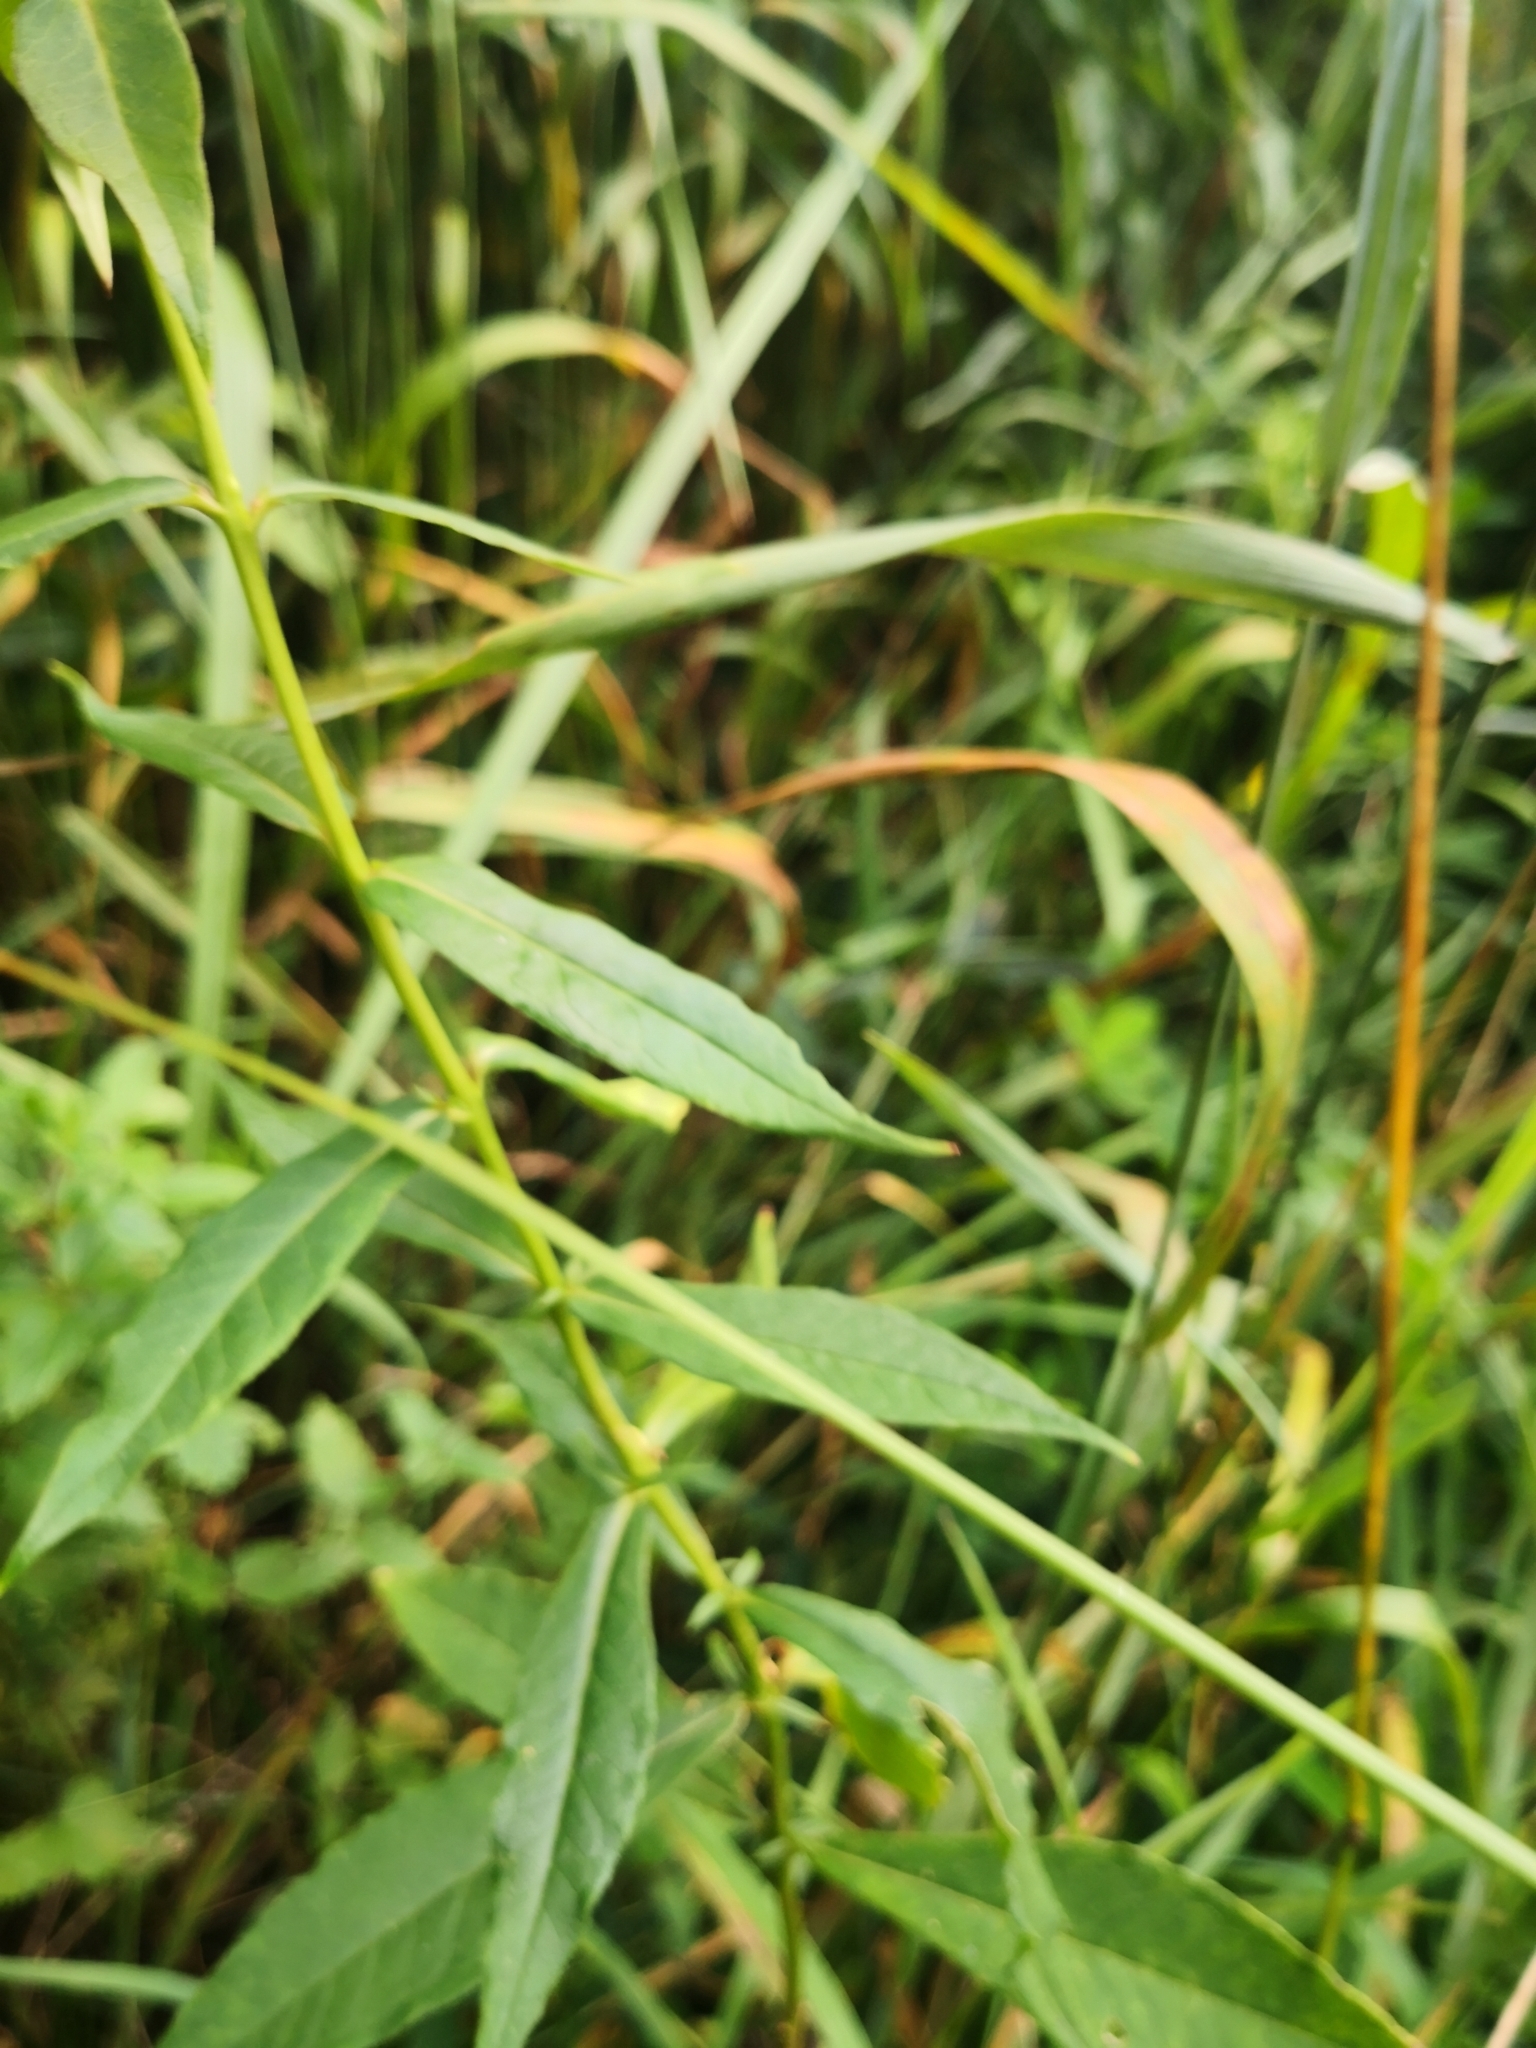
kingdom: Plantae
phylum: Tracheophyta
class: Magnoliopsida
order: Ericales
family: Polemoniaceae
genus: Phlox
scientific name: Phlox paniculata
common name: Fall phlox
